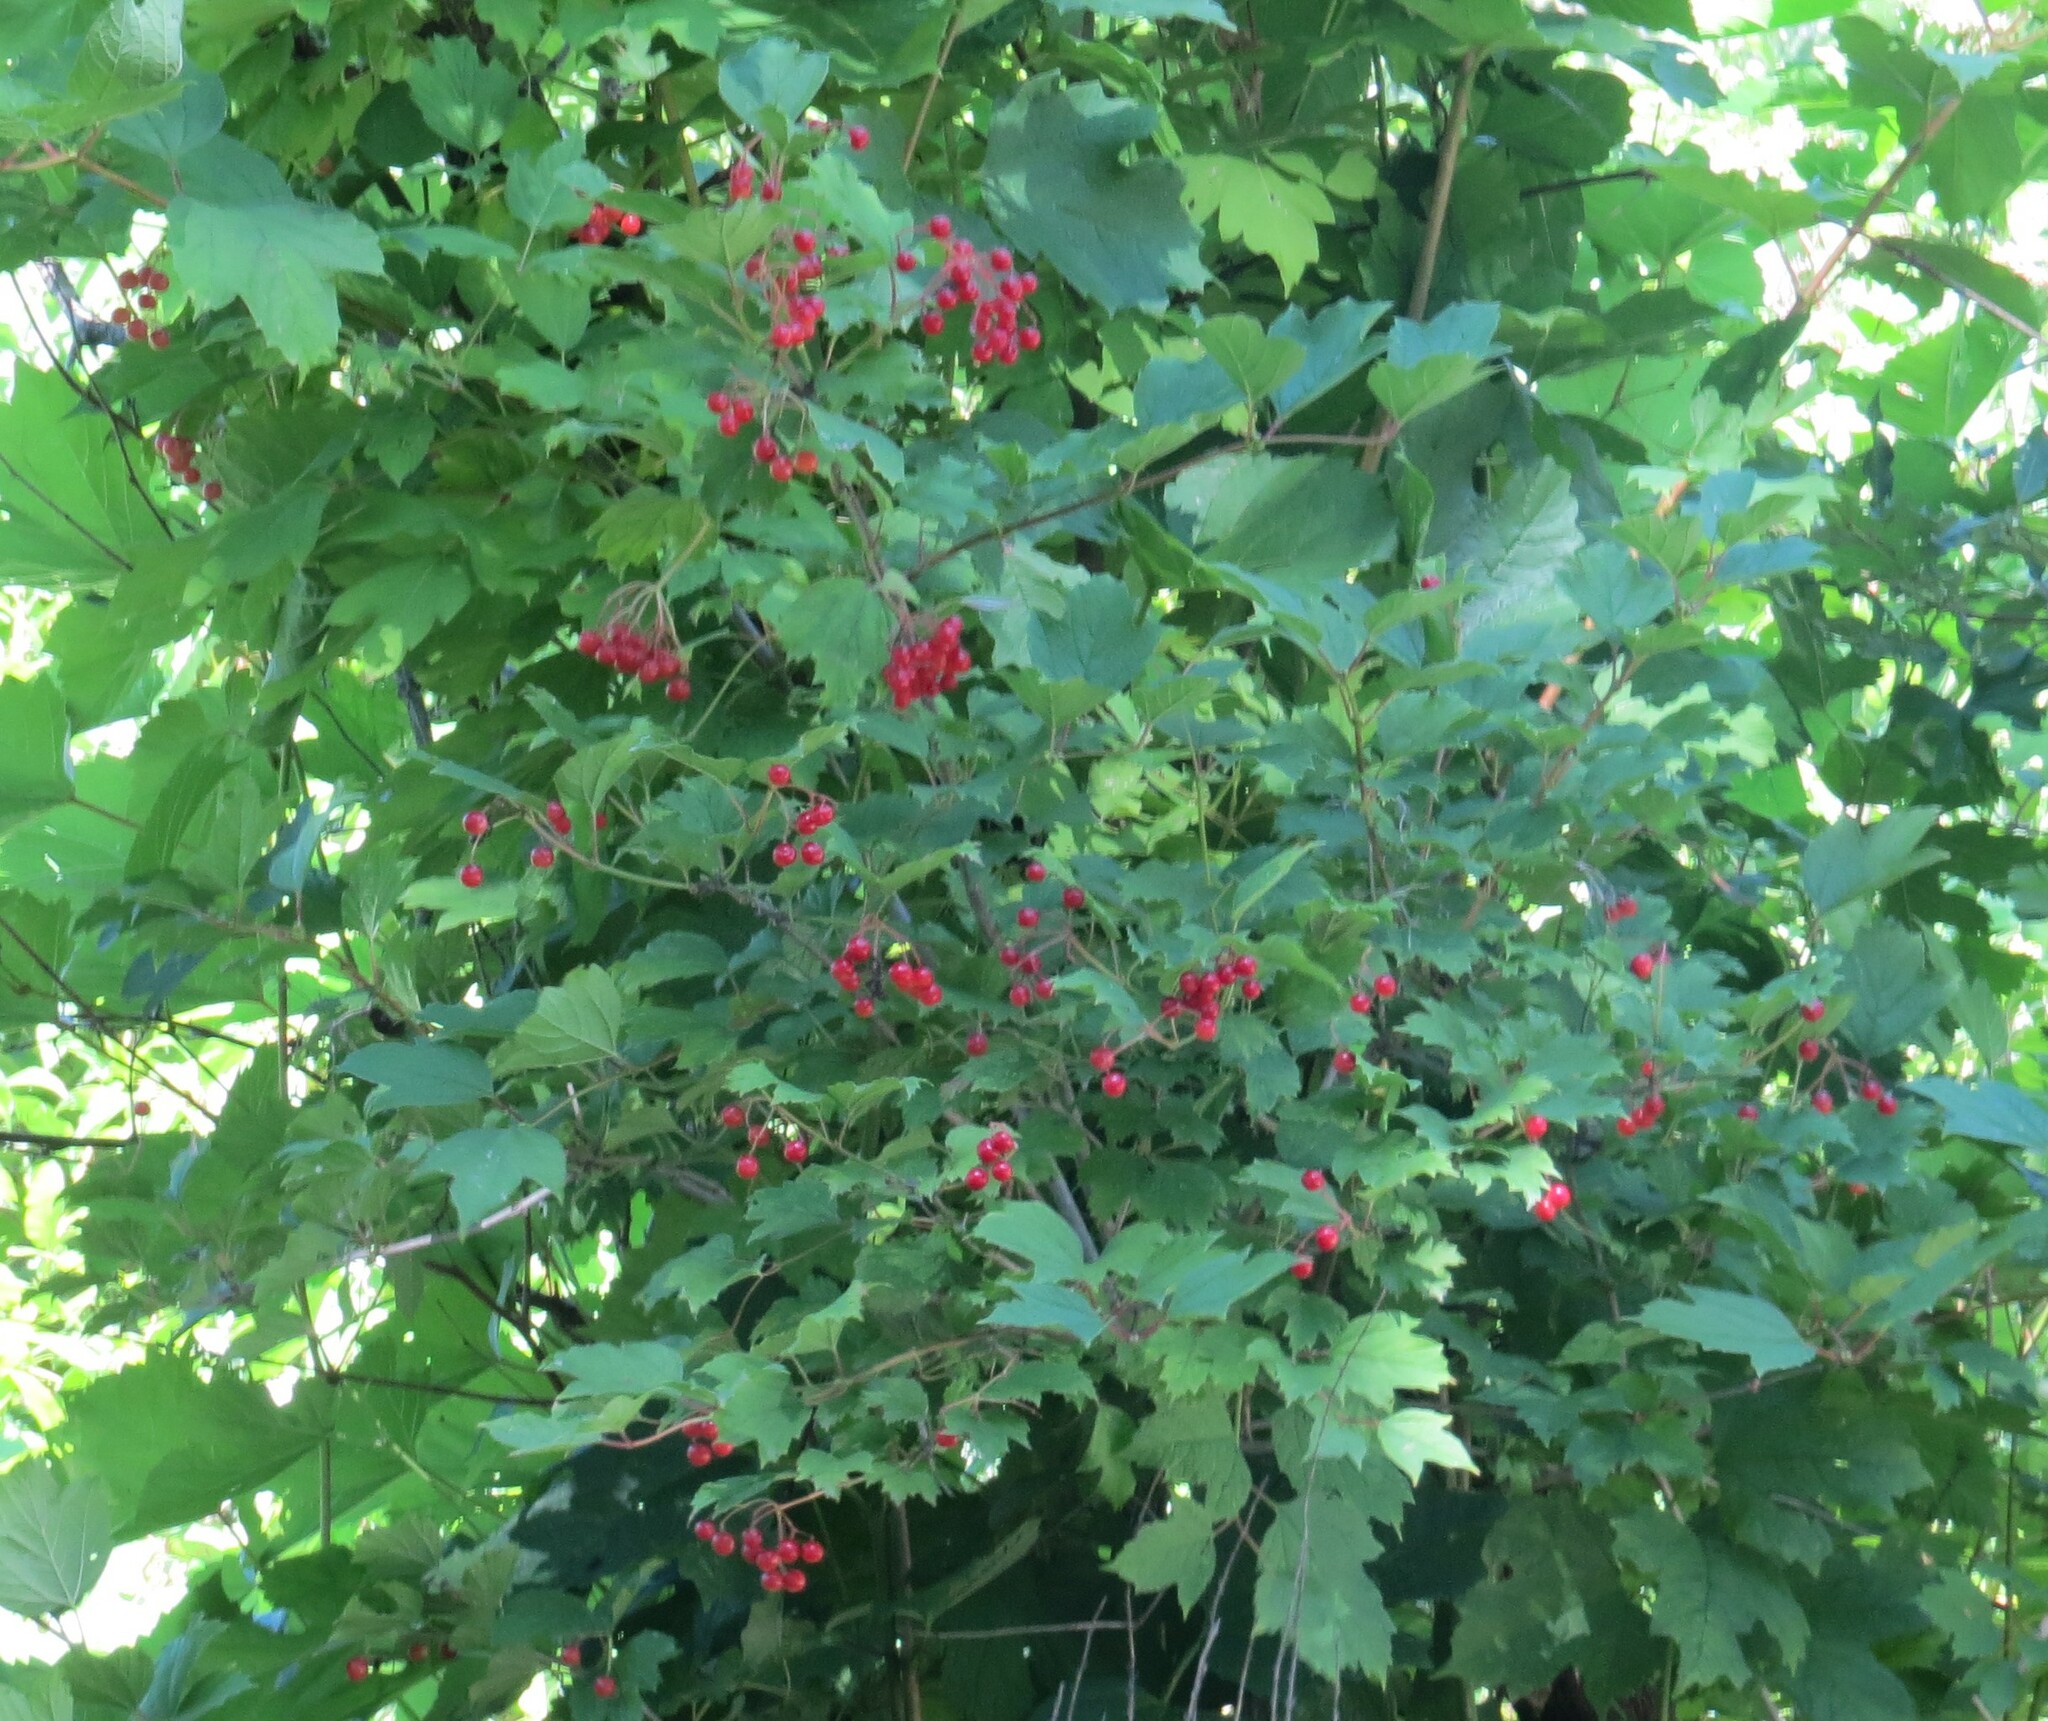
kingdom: Plantae
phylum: Tracheophyta
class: Magnoliopsida
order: Dipsacales
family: Viburnaceae
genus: Viburnum
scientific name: Viburnum opulus
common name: Guelder-rose
